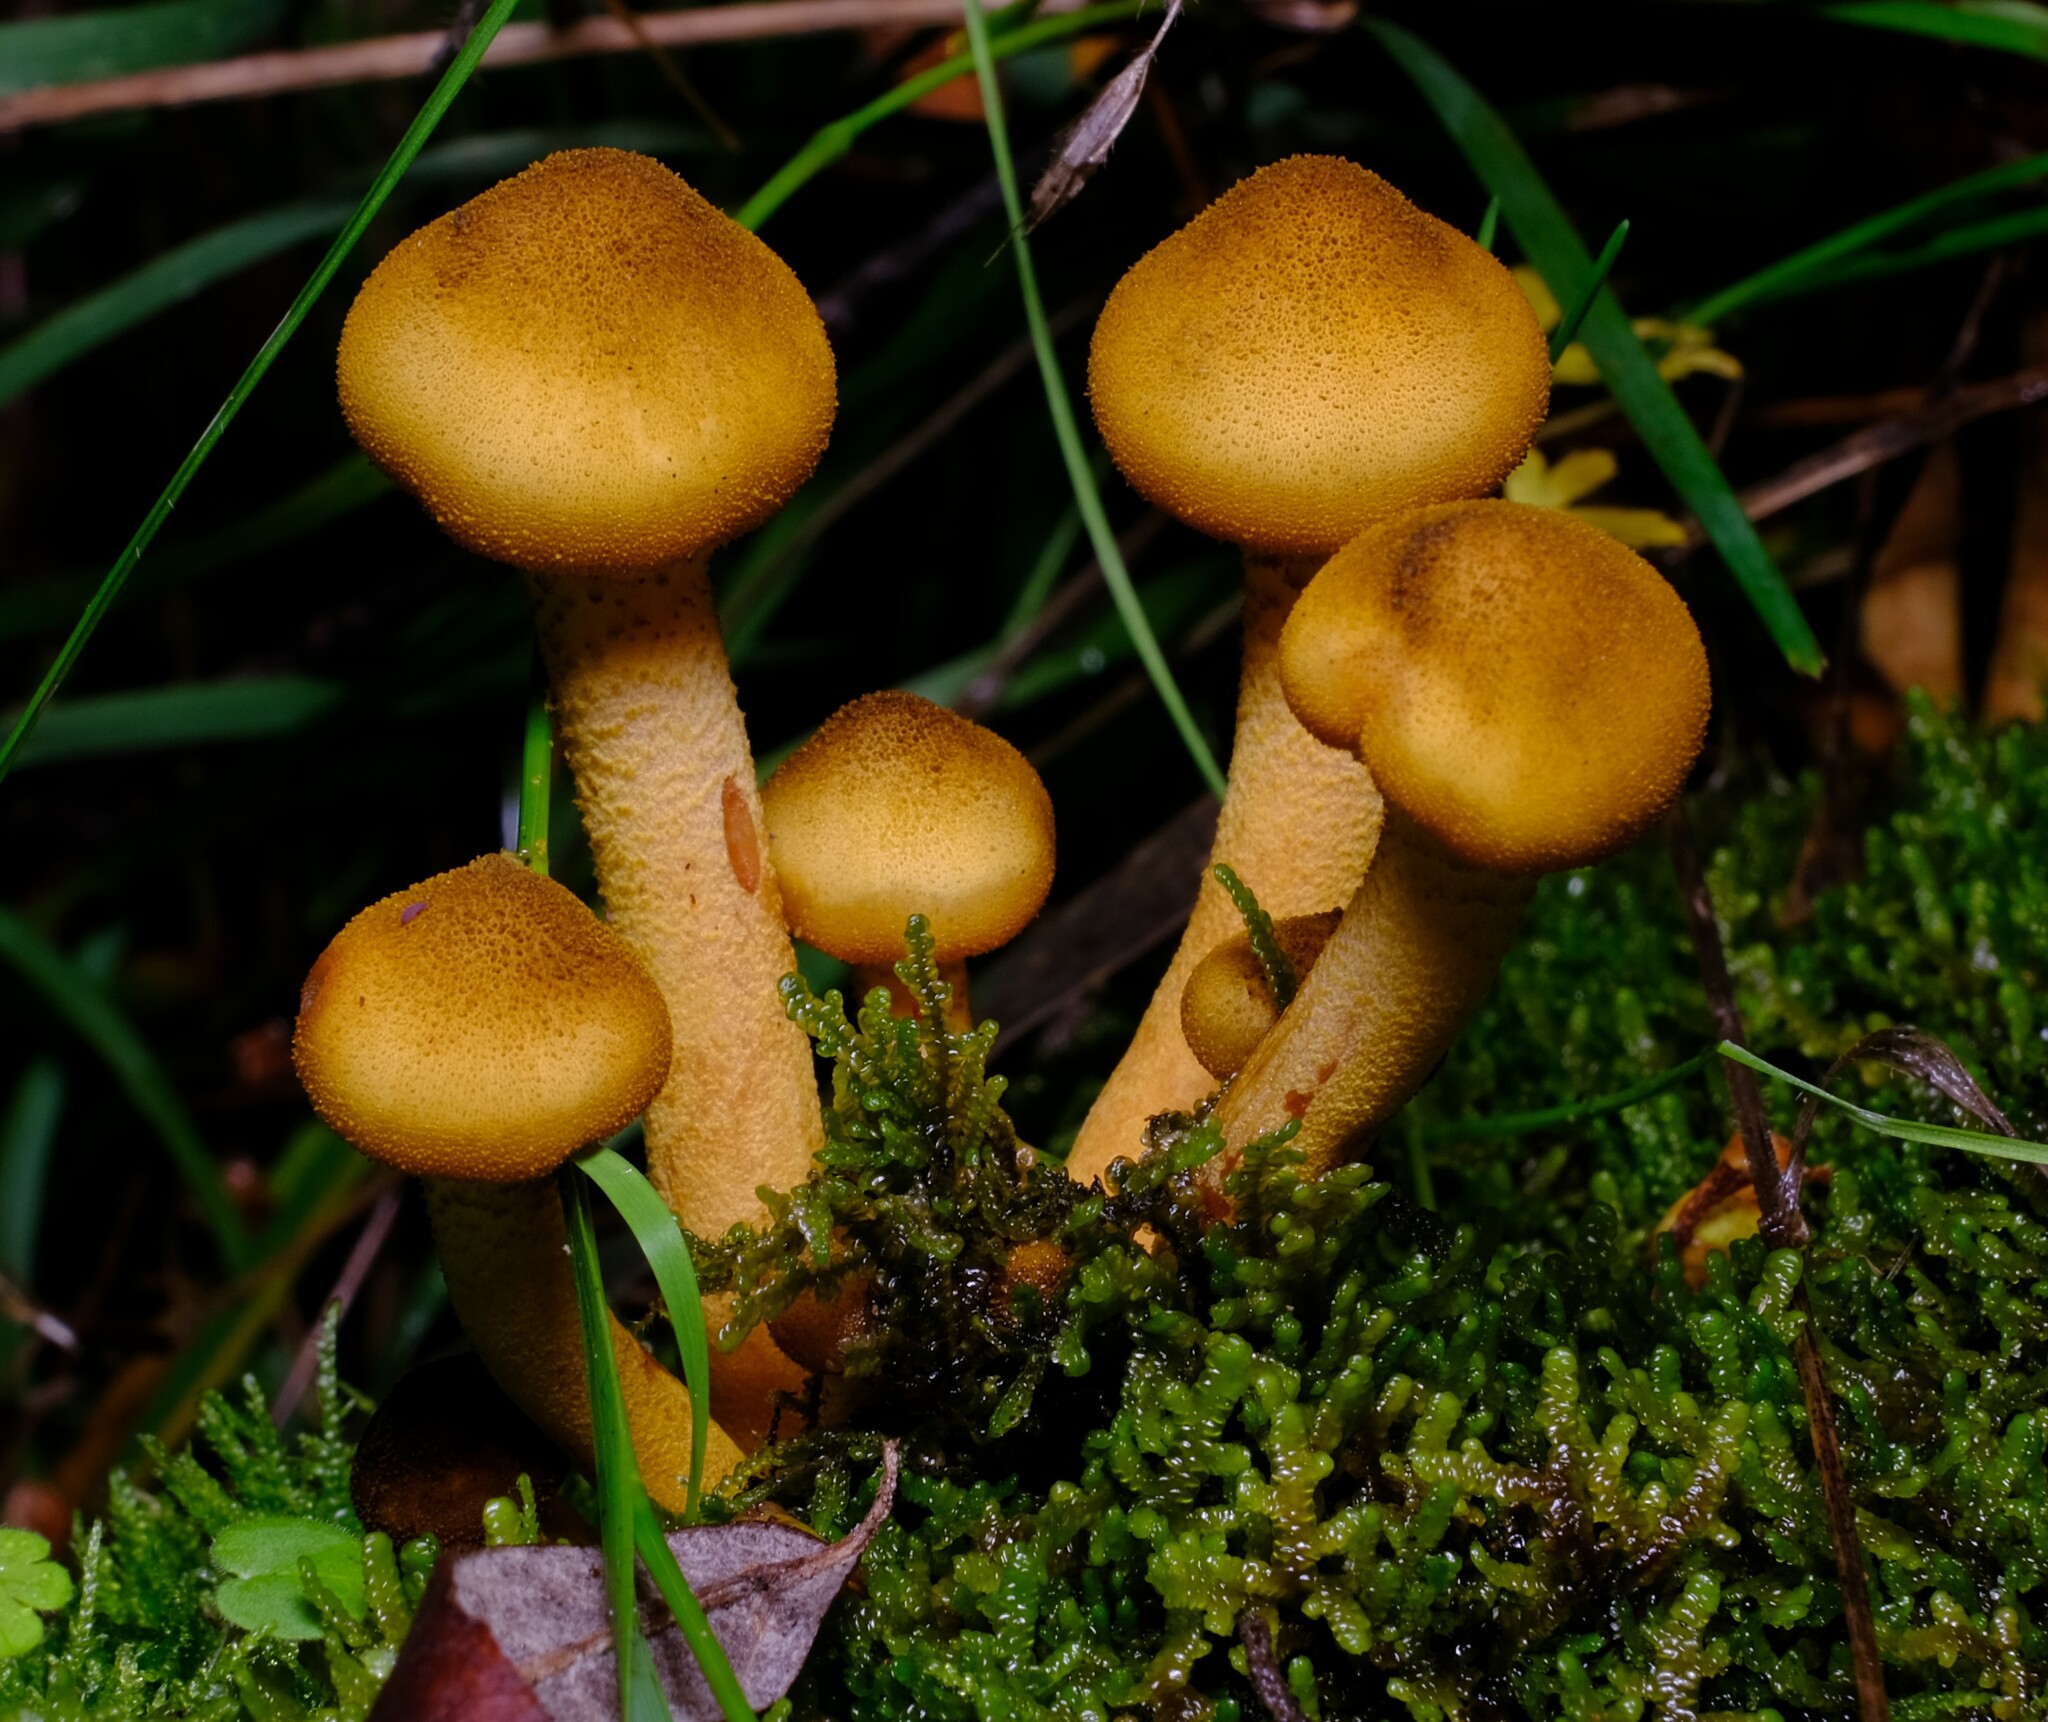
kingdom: Fungi
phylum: Basidiomycota
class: Agaricomycetes
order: Agaricales
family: Physalacriaceae
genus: Armillaria
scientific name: Armillaria luteobubalina
